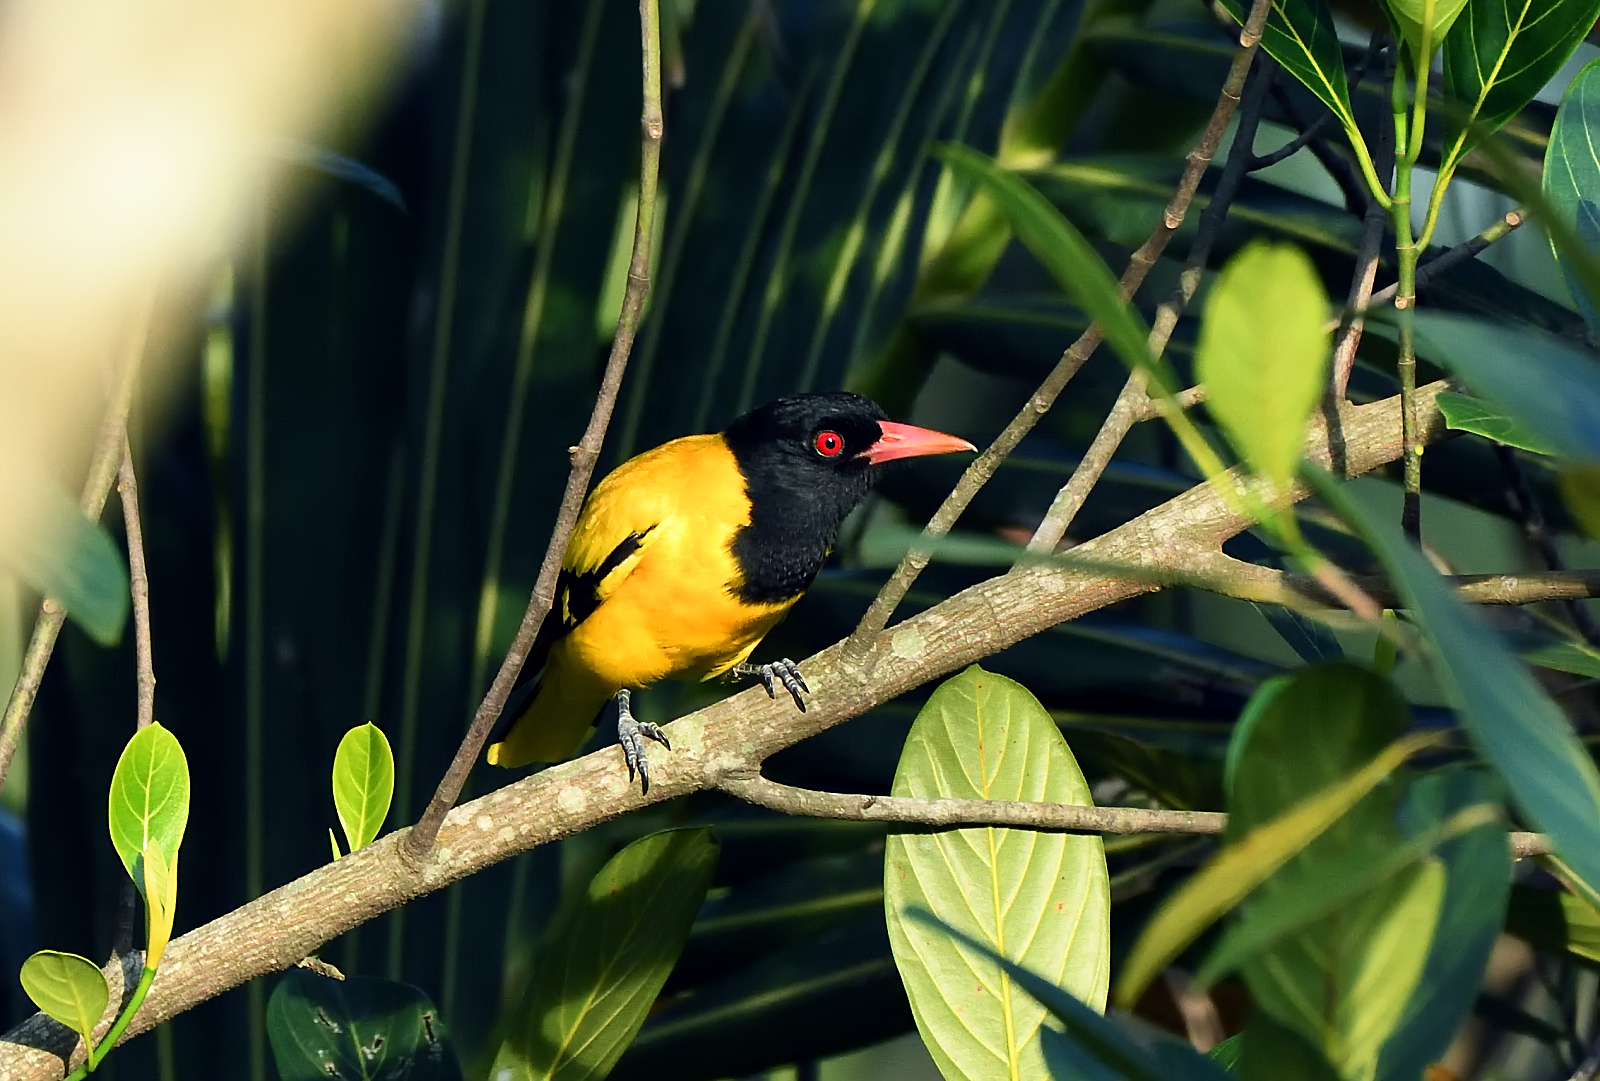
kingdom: Animalia
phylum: Chordata
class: Aves
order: Passeriformes
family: Oriolidae
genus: Oriolus
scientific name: Oriolus xanthornus
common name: Black-hooded oriole
